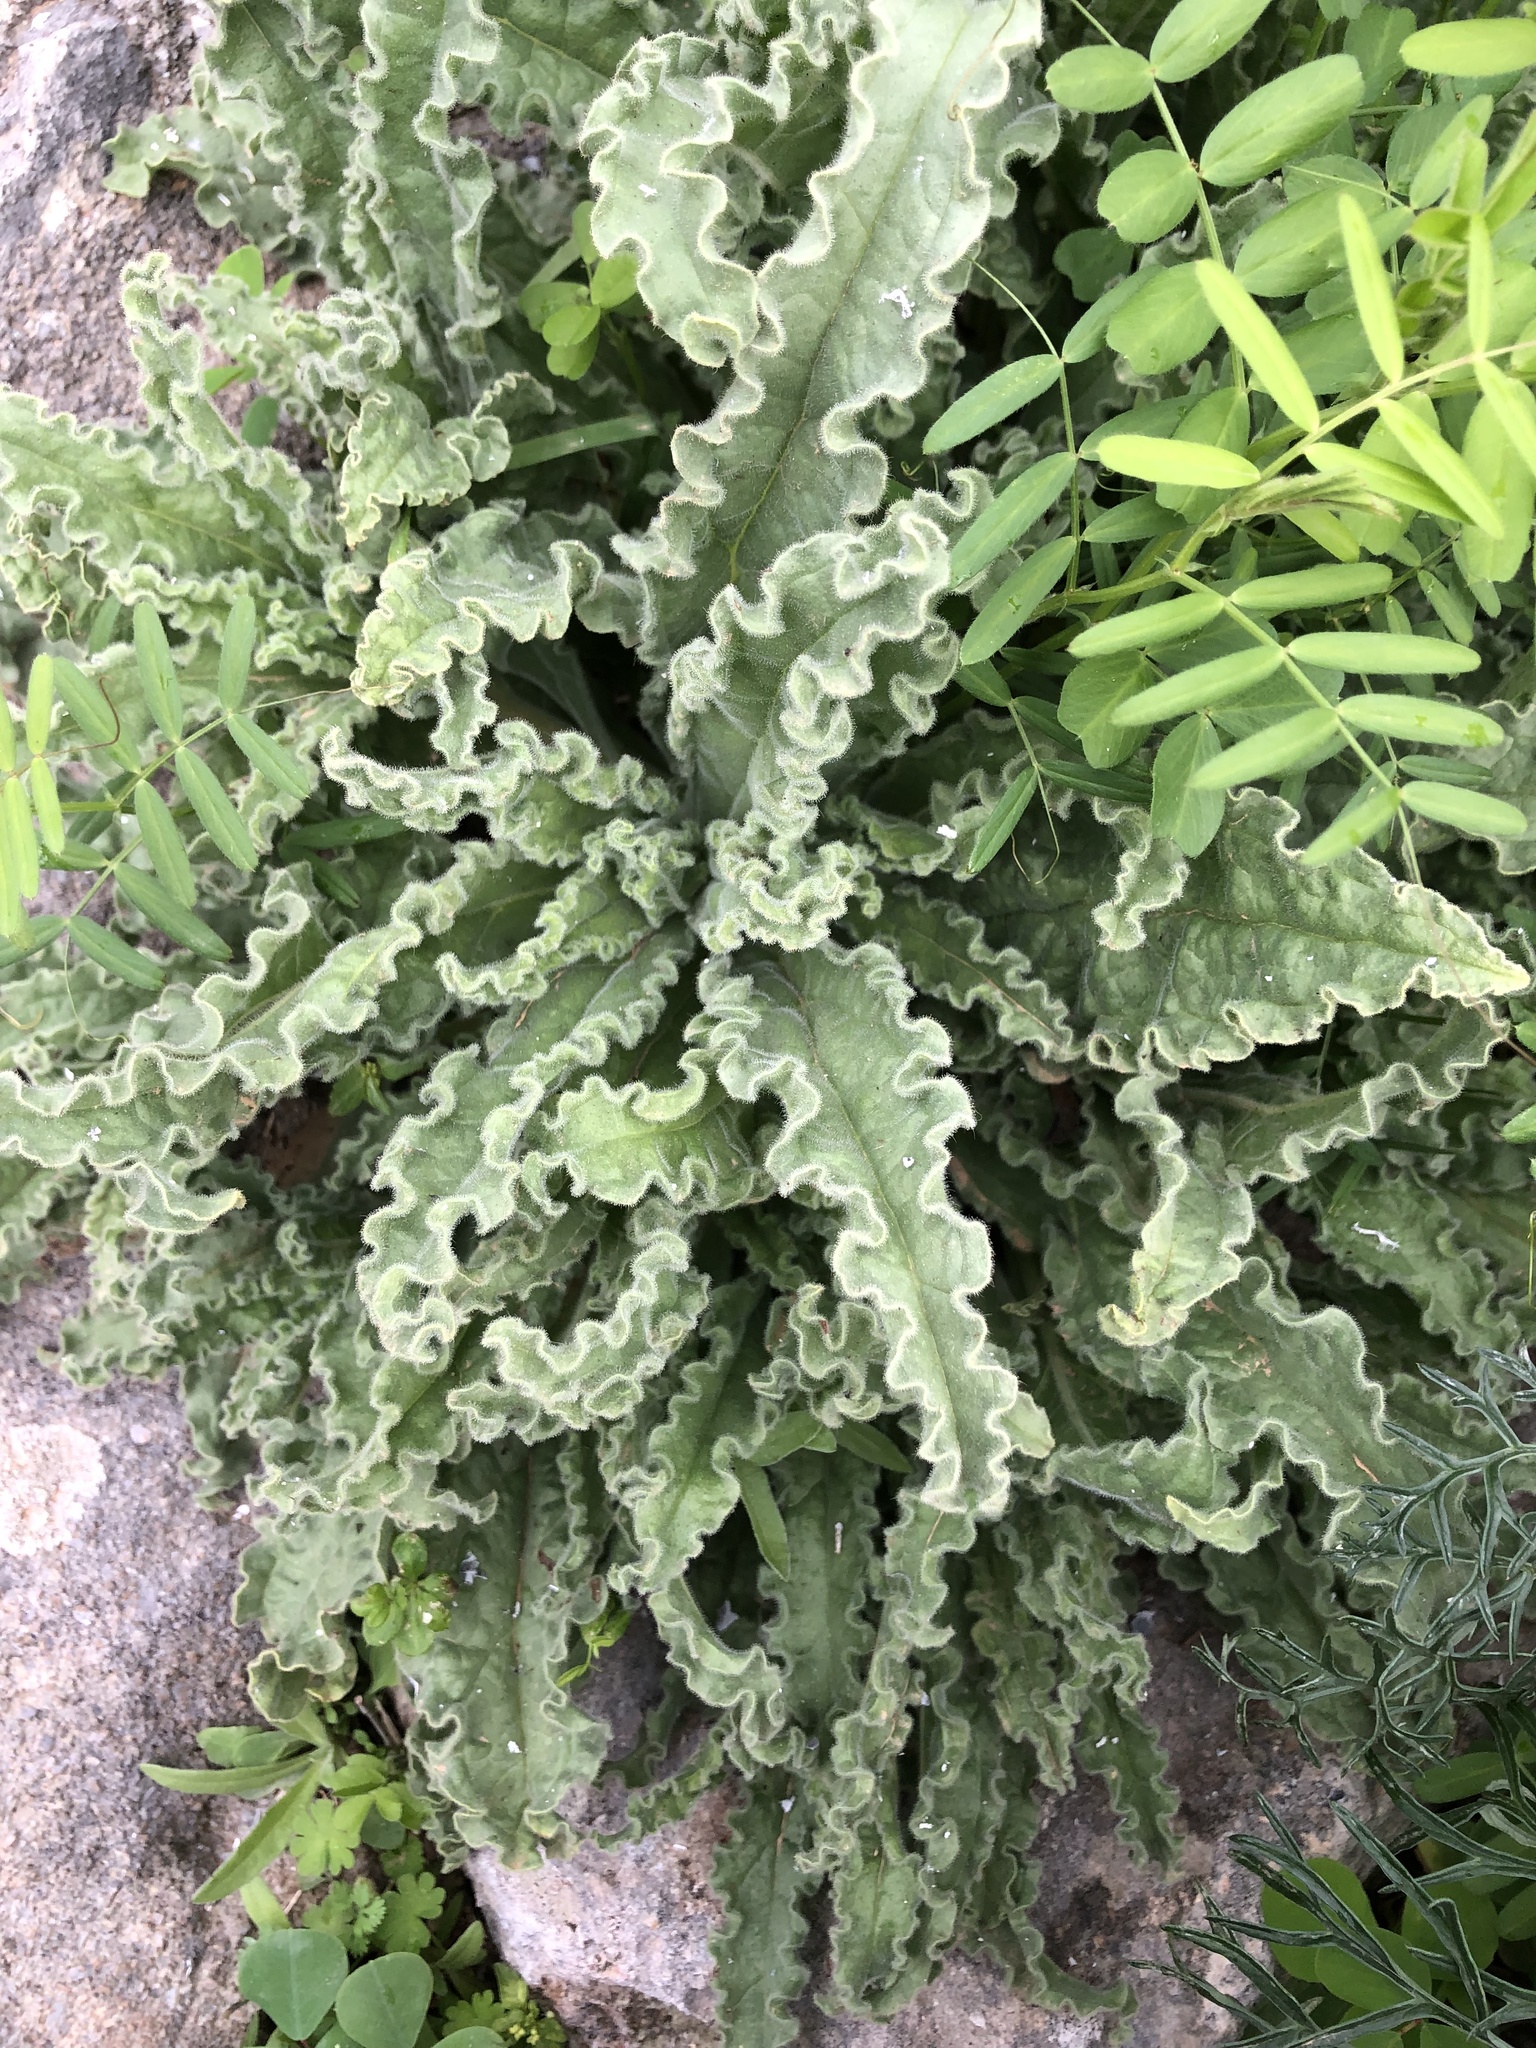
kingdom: Plantae
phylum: Tracheophyta
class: Magnoliopsida
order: Boraginales
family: Boraginaceae
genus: Alkanna
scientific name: Alkanna hellenica
